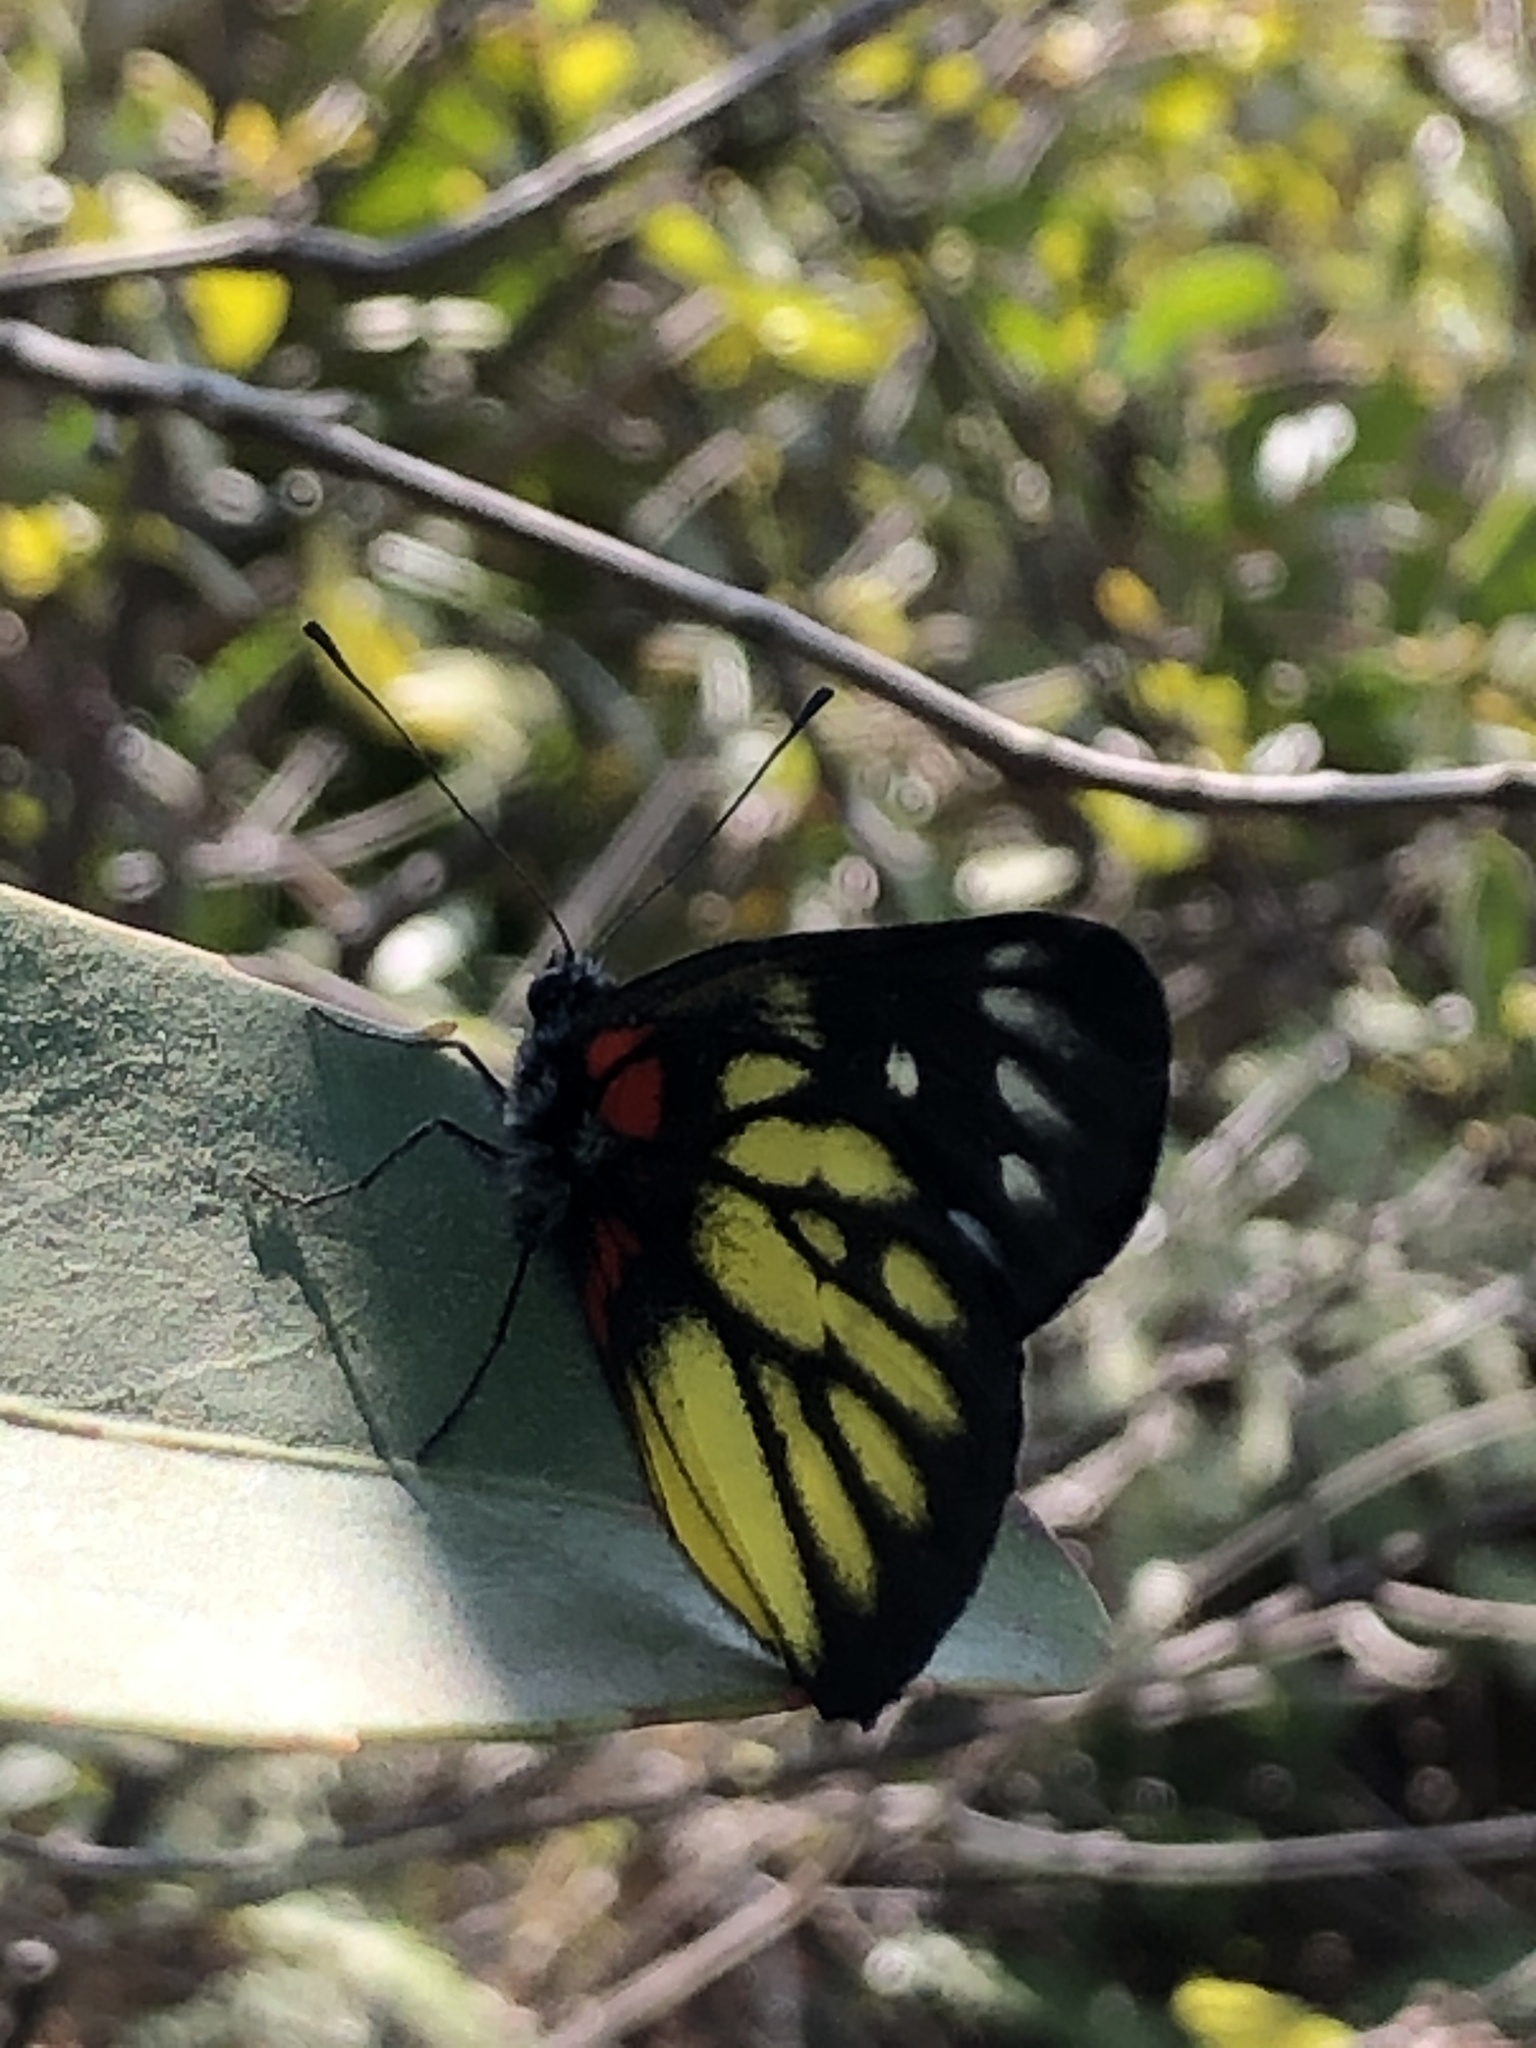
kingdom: Animalia
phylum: Arthropoda
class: Insecta
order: Lepidoptera
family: Pieridae
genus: Delias
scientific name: Delias pasithoe
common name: Red-base jezebel
